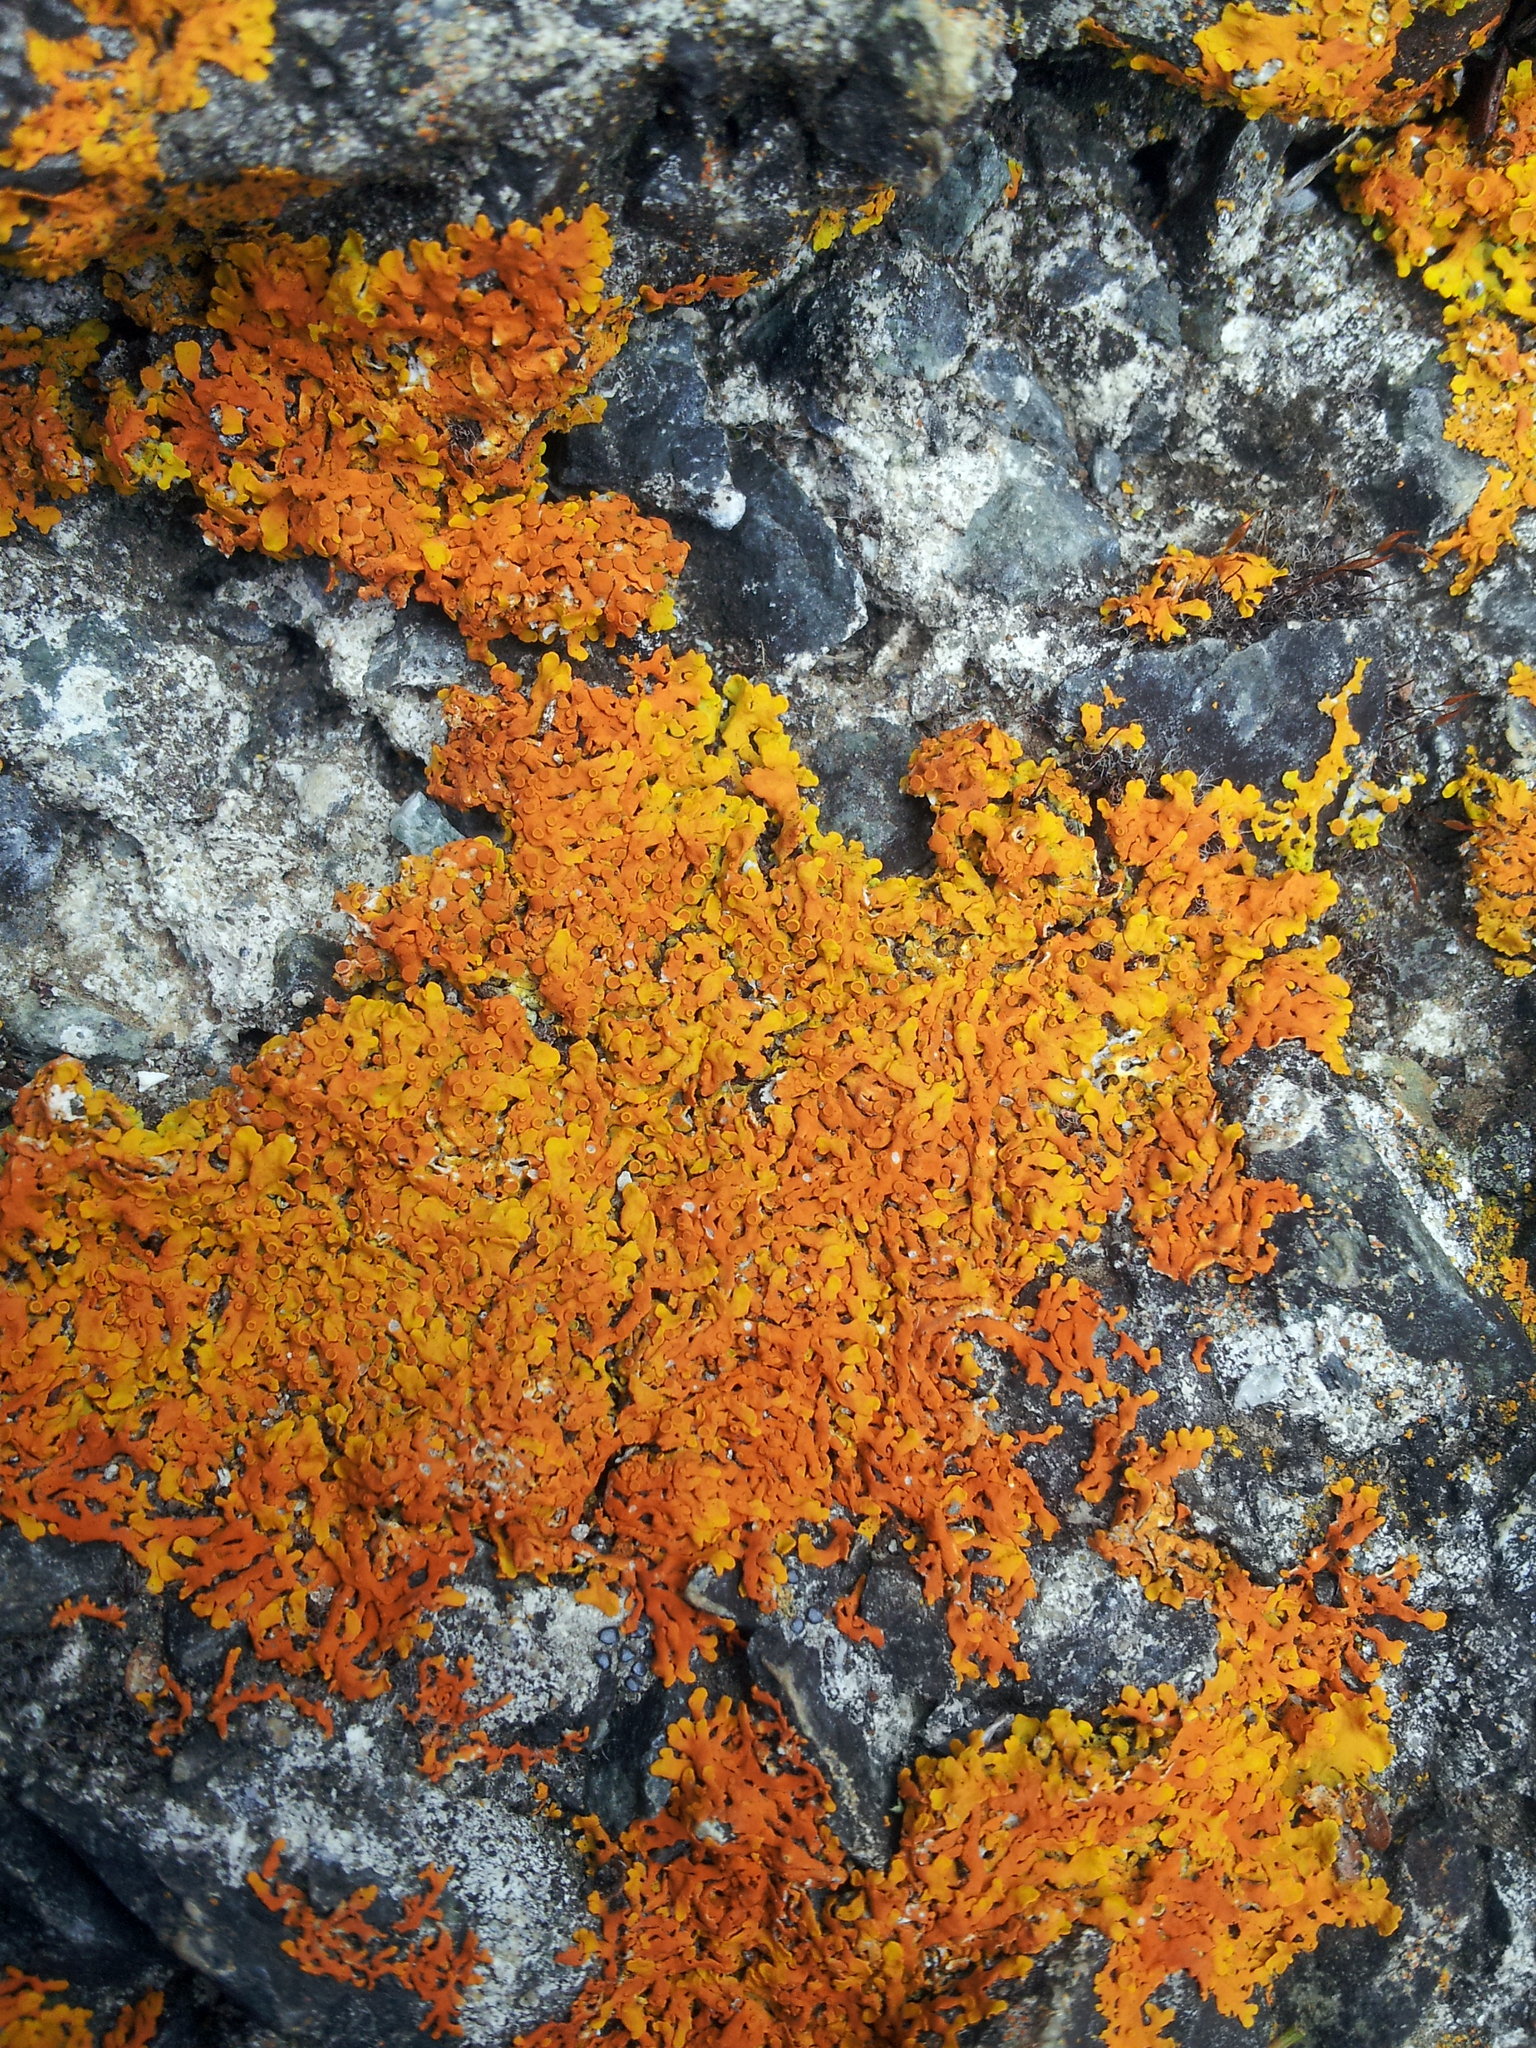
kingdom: Fungi
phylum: Ascomycota
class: Lecanoromycetes
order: Teloschistales
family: Teloschistaceae
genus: Dufourea
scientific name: Dufourea ligulata
